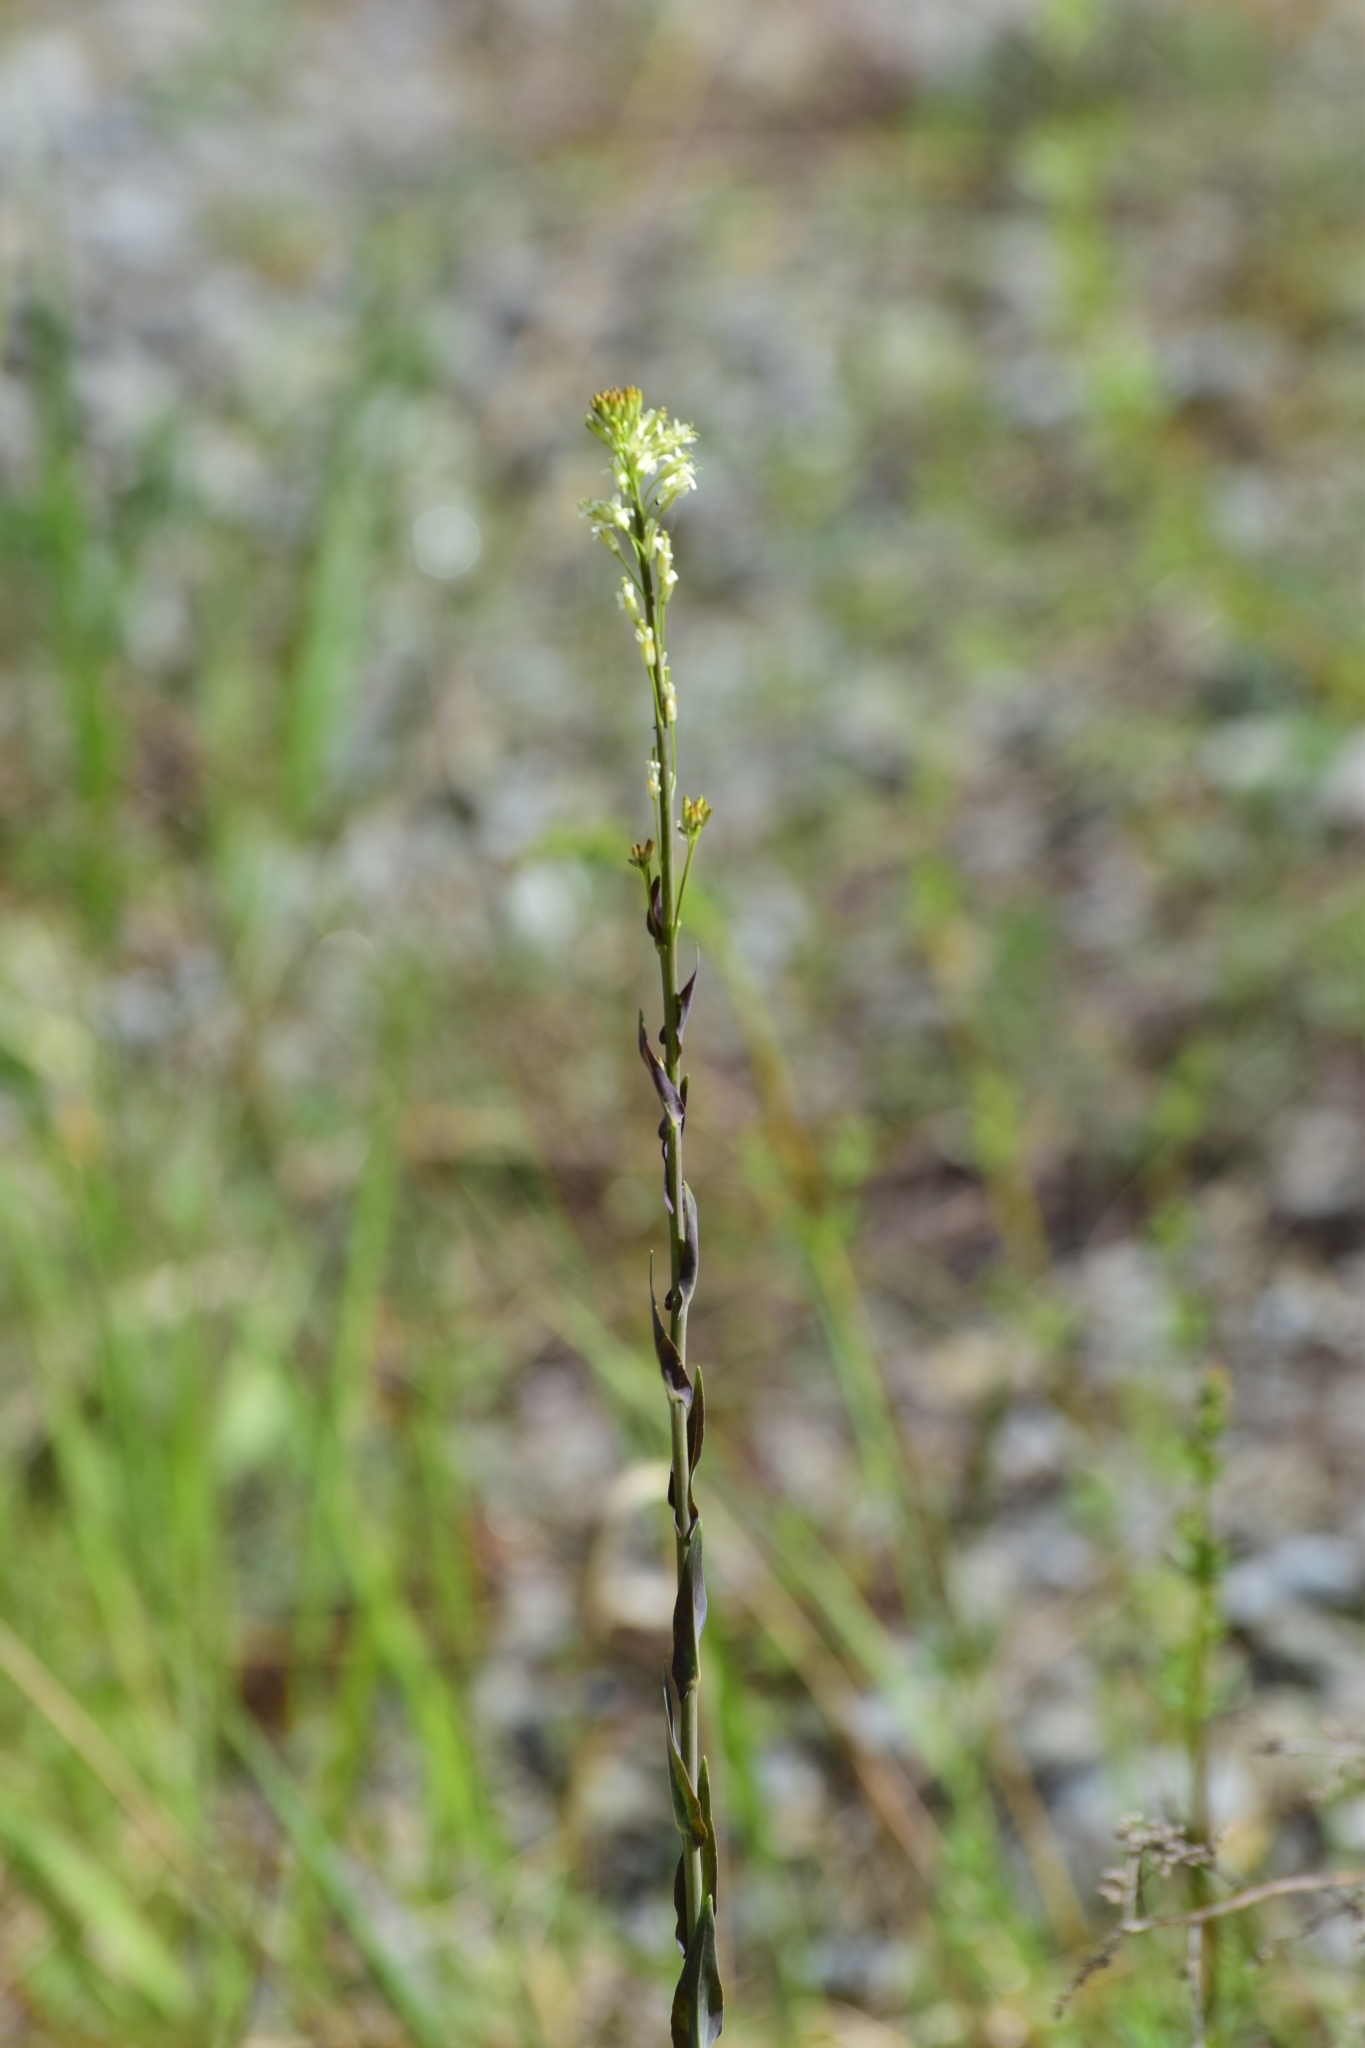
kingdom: Plantae
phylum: Tracheophyta
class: Magnoliopsida
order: Brassicales
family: Brassicaceae
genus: Turritis
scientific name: Turritis glabra
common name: Tower rockcress
